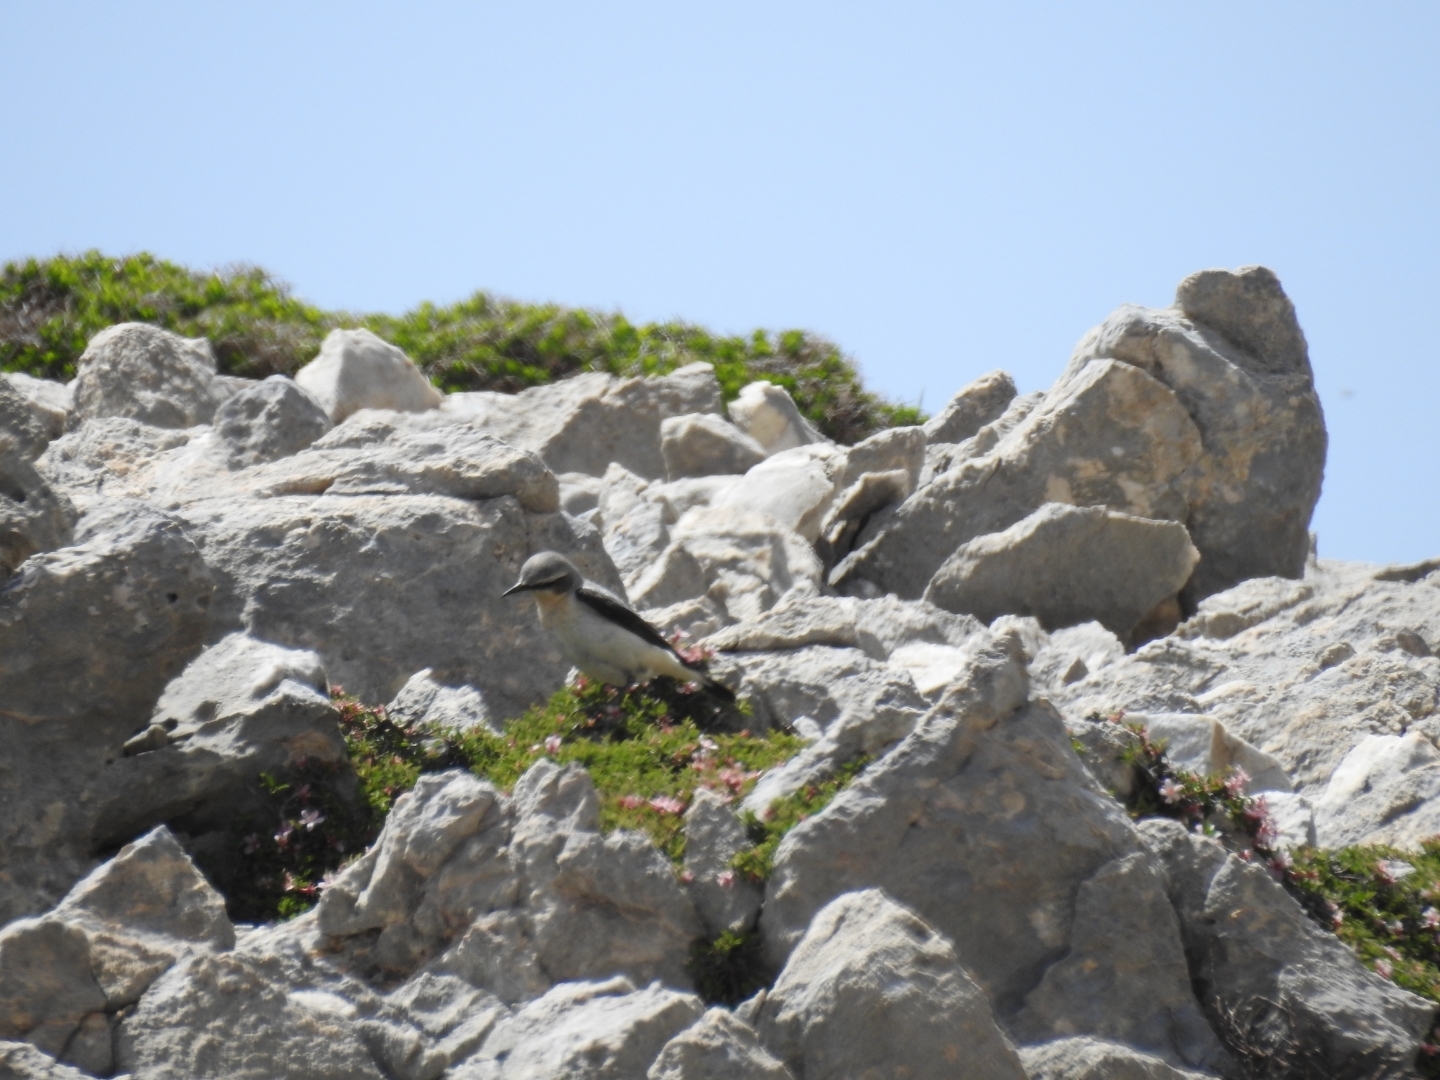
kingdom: Animalia
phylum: Chordata
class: Aves
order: Passeriformes
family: Muscicapidae
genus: Oenanthe
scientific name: Oenanthe oenanthe
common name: Northern wheatear
